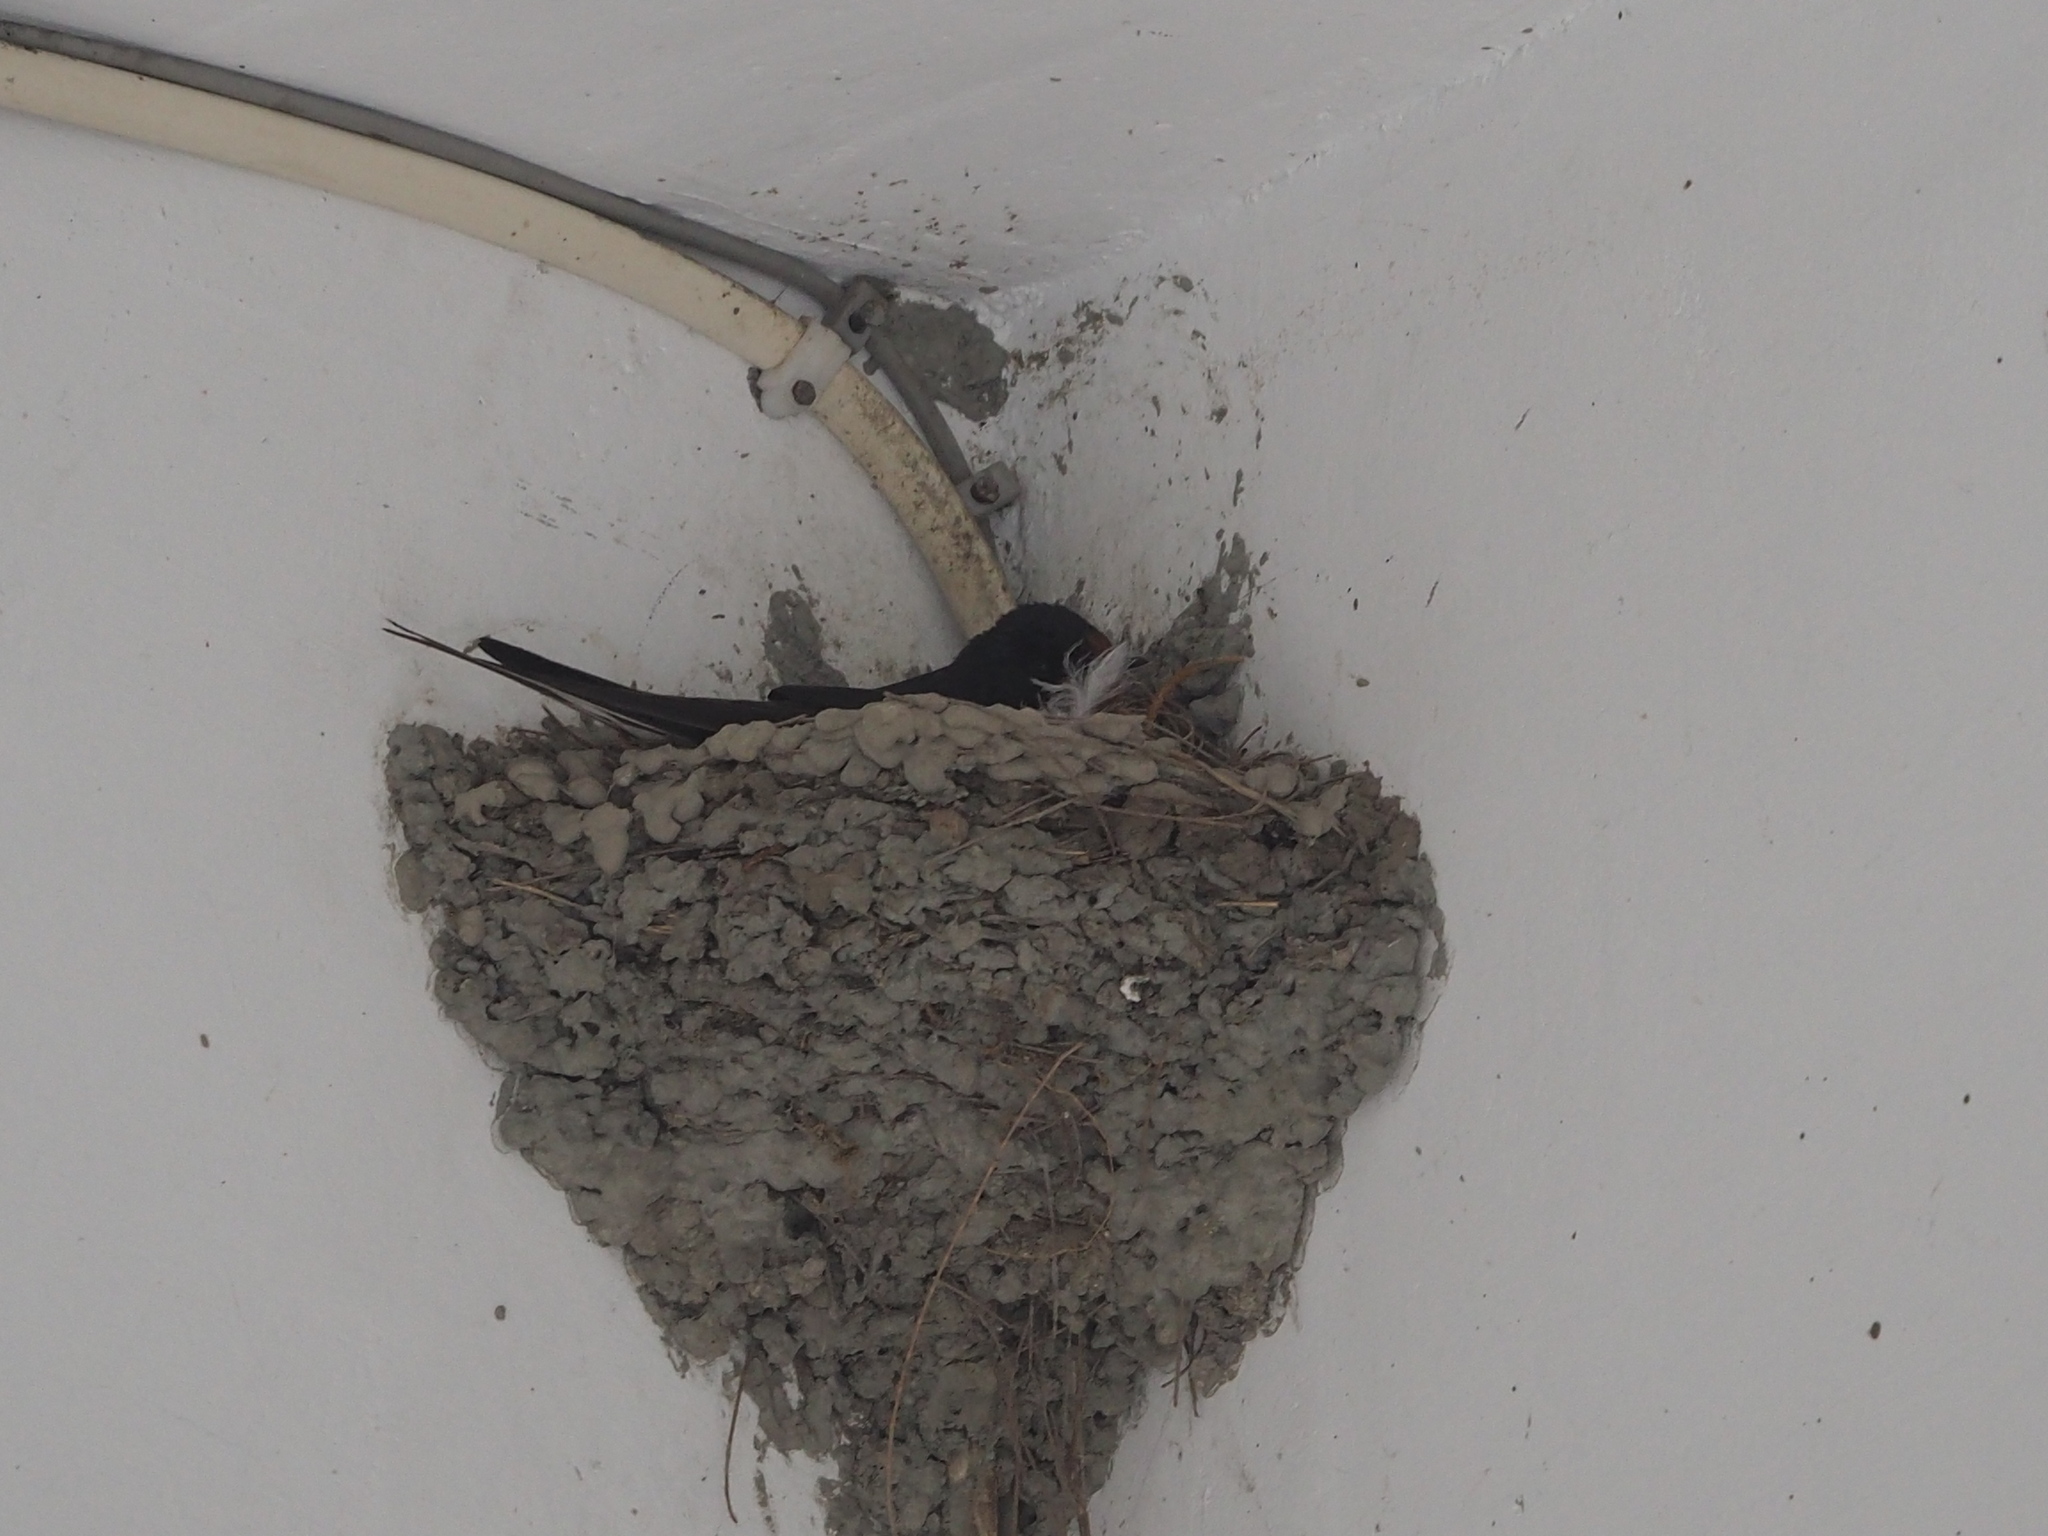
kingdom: Animalia
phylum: Chordata
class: Aves
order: Passeriformes
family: Hirundinidae
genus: Hirundo
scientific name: Hirundo rustica
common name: Barn swallow
